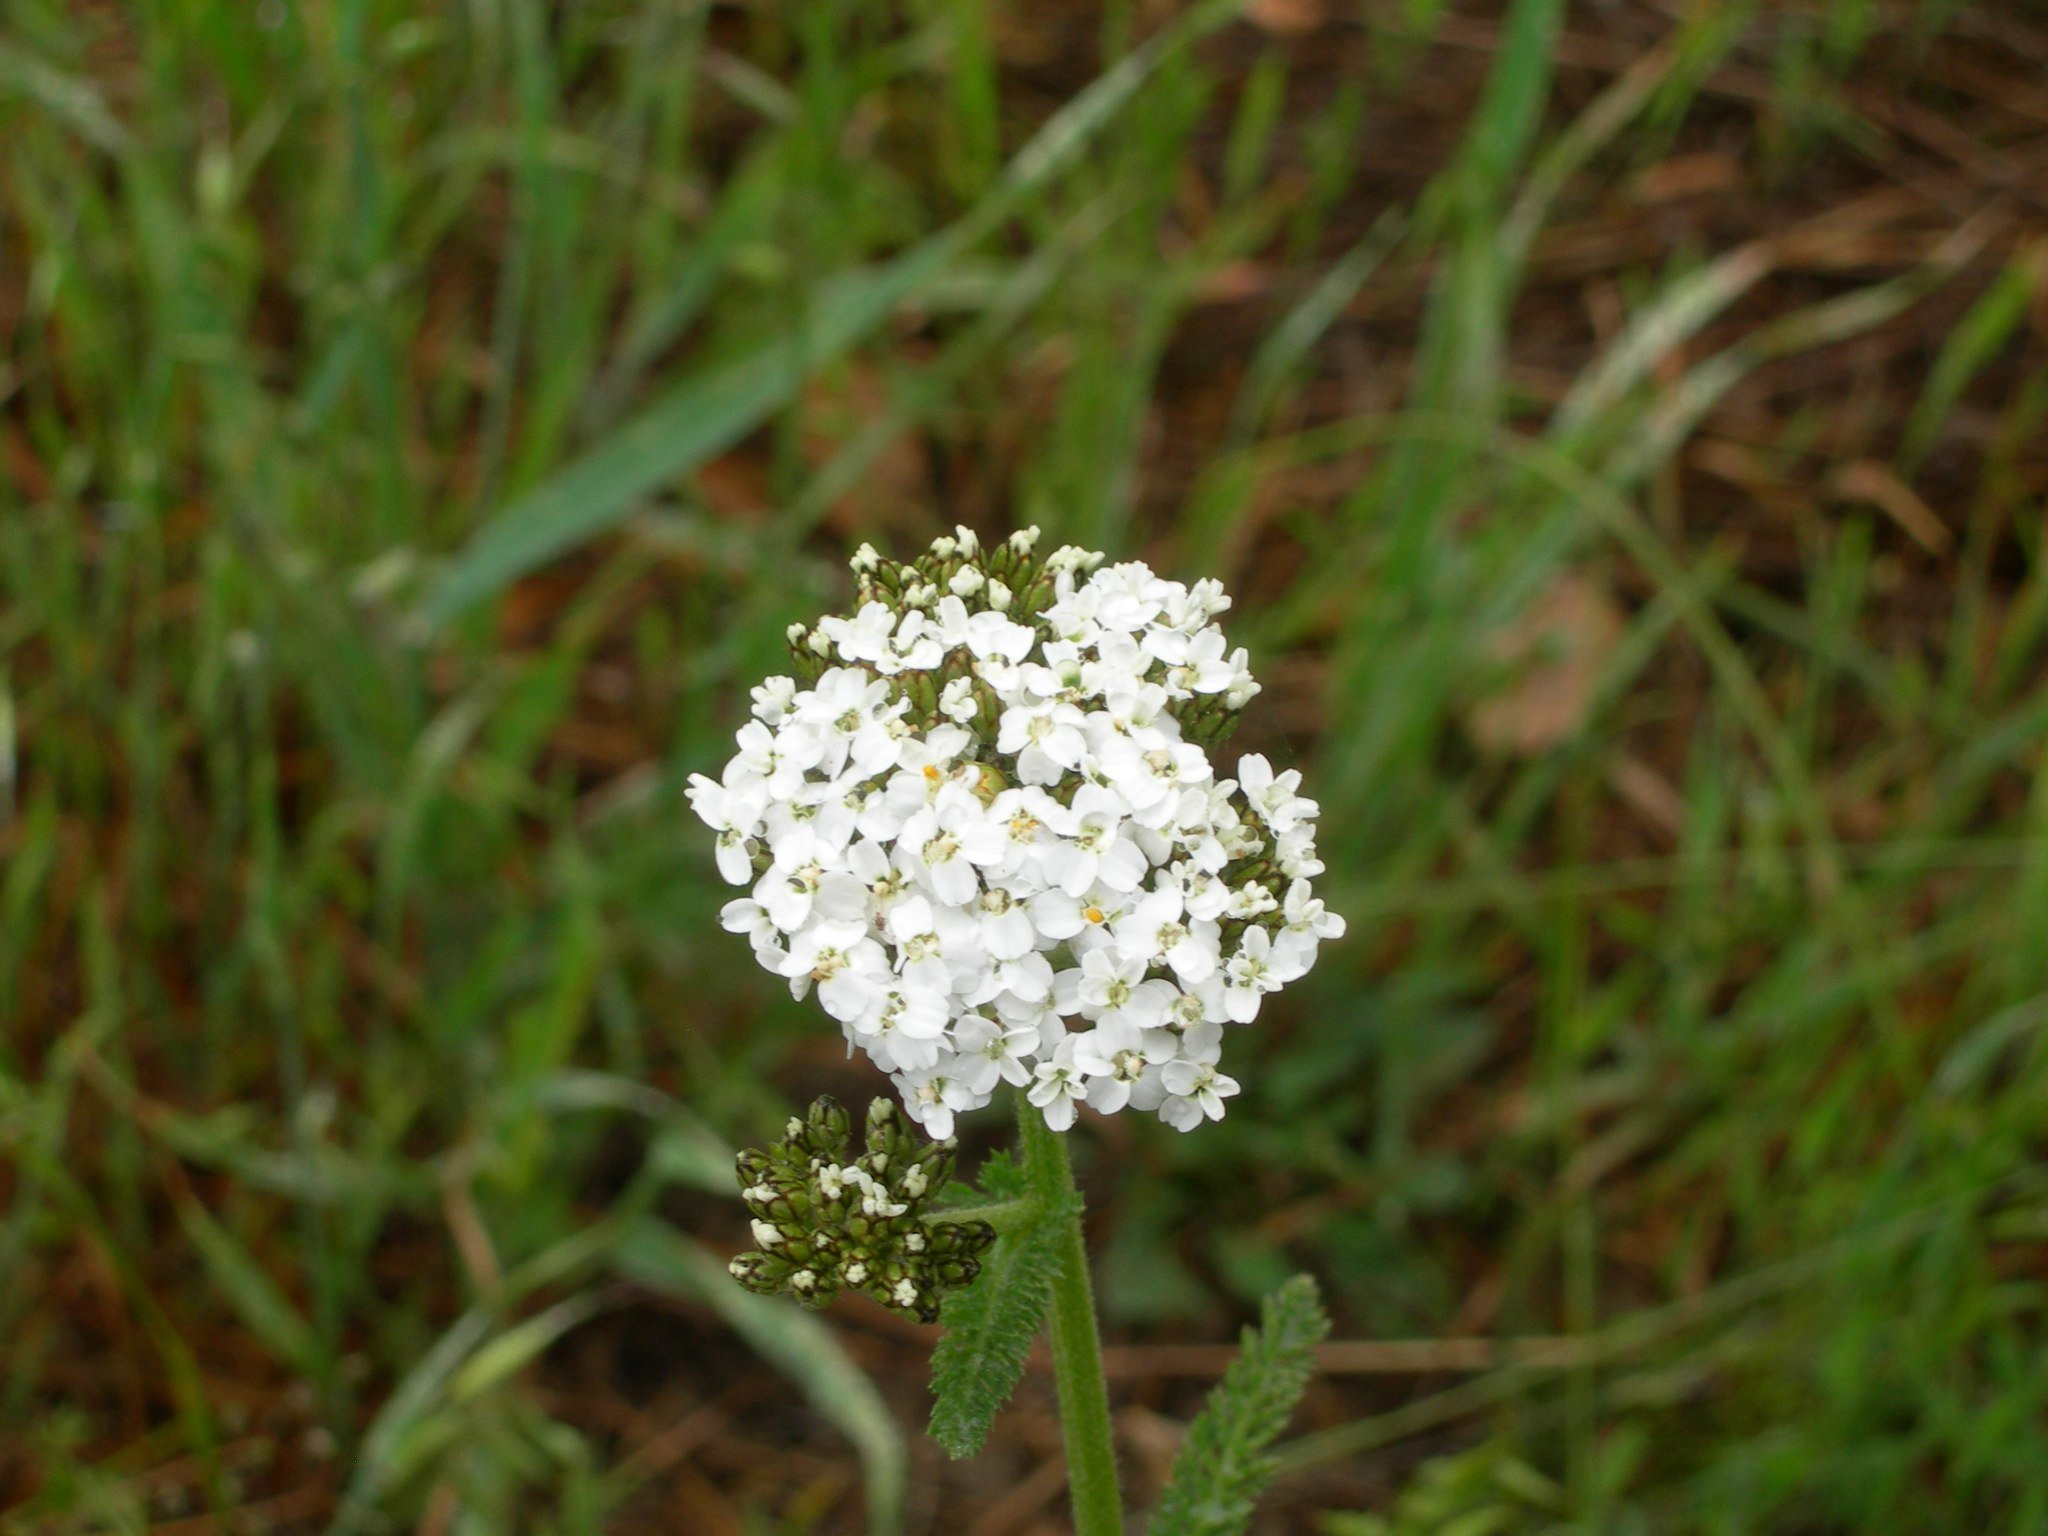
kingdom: Plantae
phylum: Tracheophyta
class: Magnoliopsida
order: Asterales
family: Asteraceae
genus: Achillea
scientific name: Achillea millefolium
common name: Yarrow
